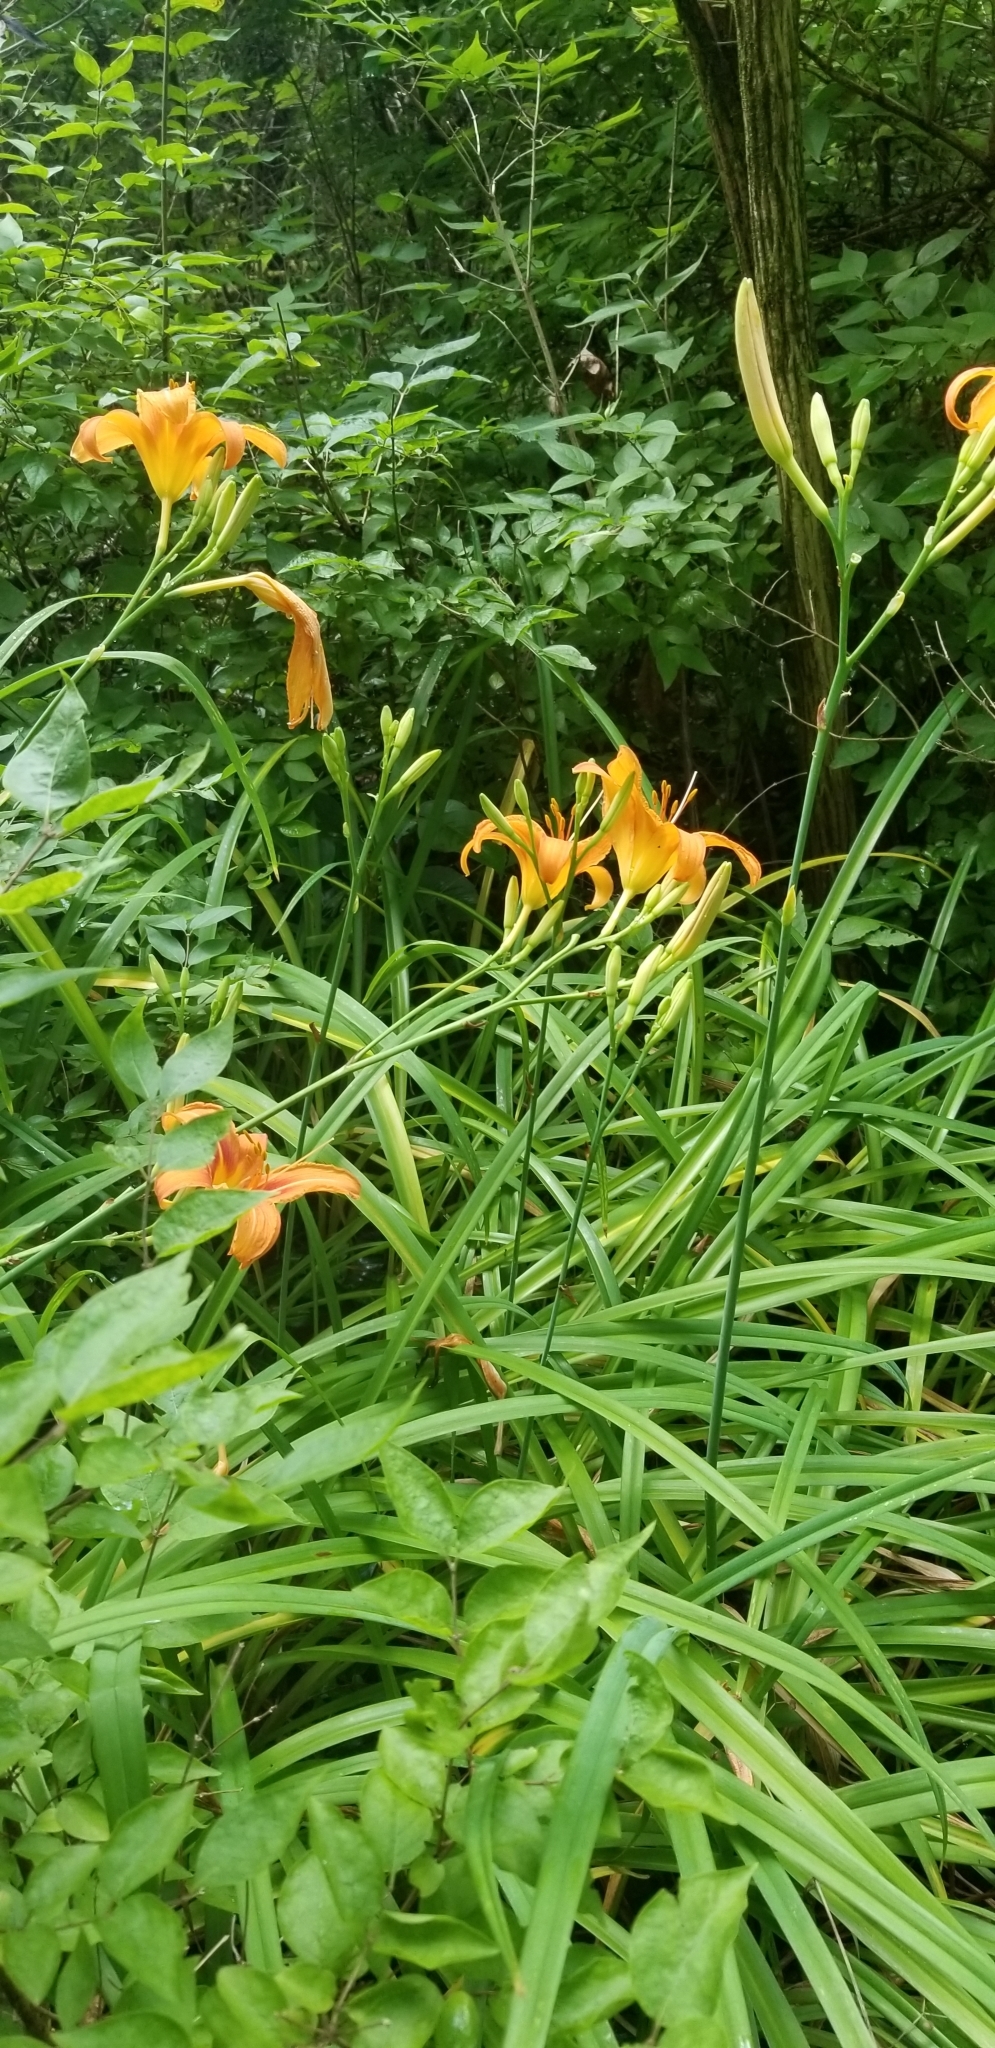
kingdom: Plantae
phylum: Tracheophyta
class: Liliopsida
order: Asparagales
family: Asphodelaceae
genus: Hemerocallis
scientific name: Hemerocallis fulva
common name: Orange day-lily
